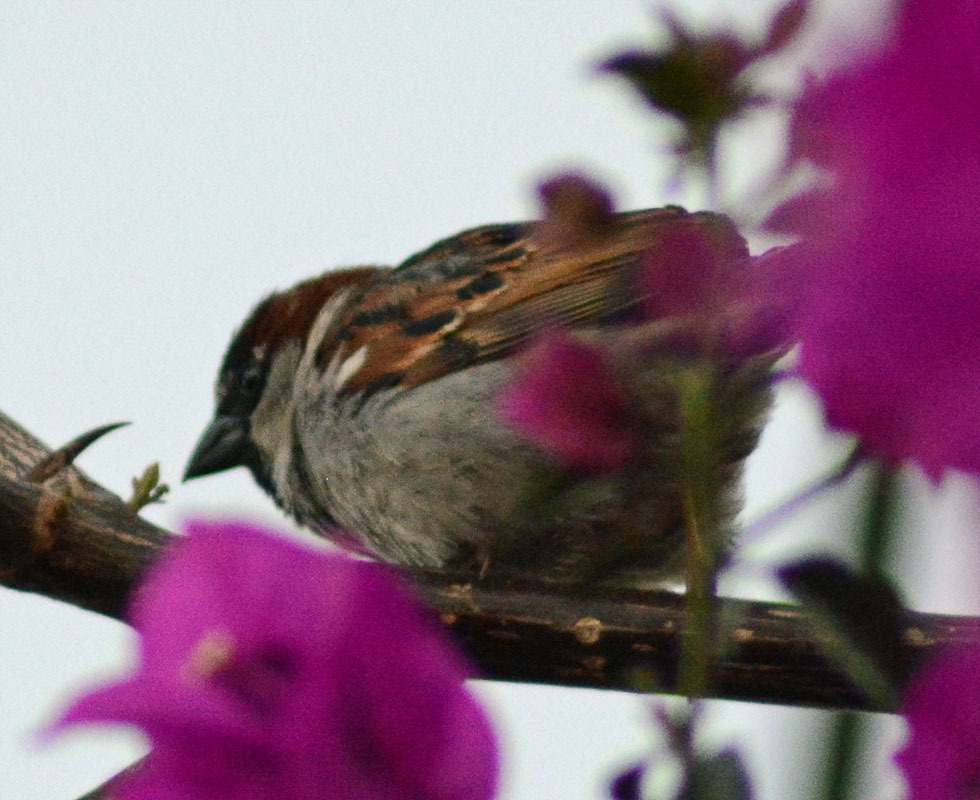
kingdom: Animalia
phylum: Chordata
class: Aves
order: Passeriformes
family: Passeridae
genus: Passer
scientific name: Passer domesticus
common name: House sparrow
